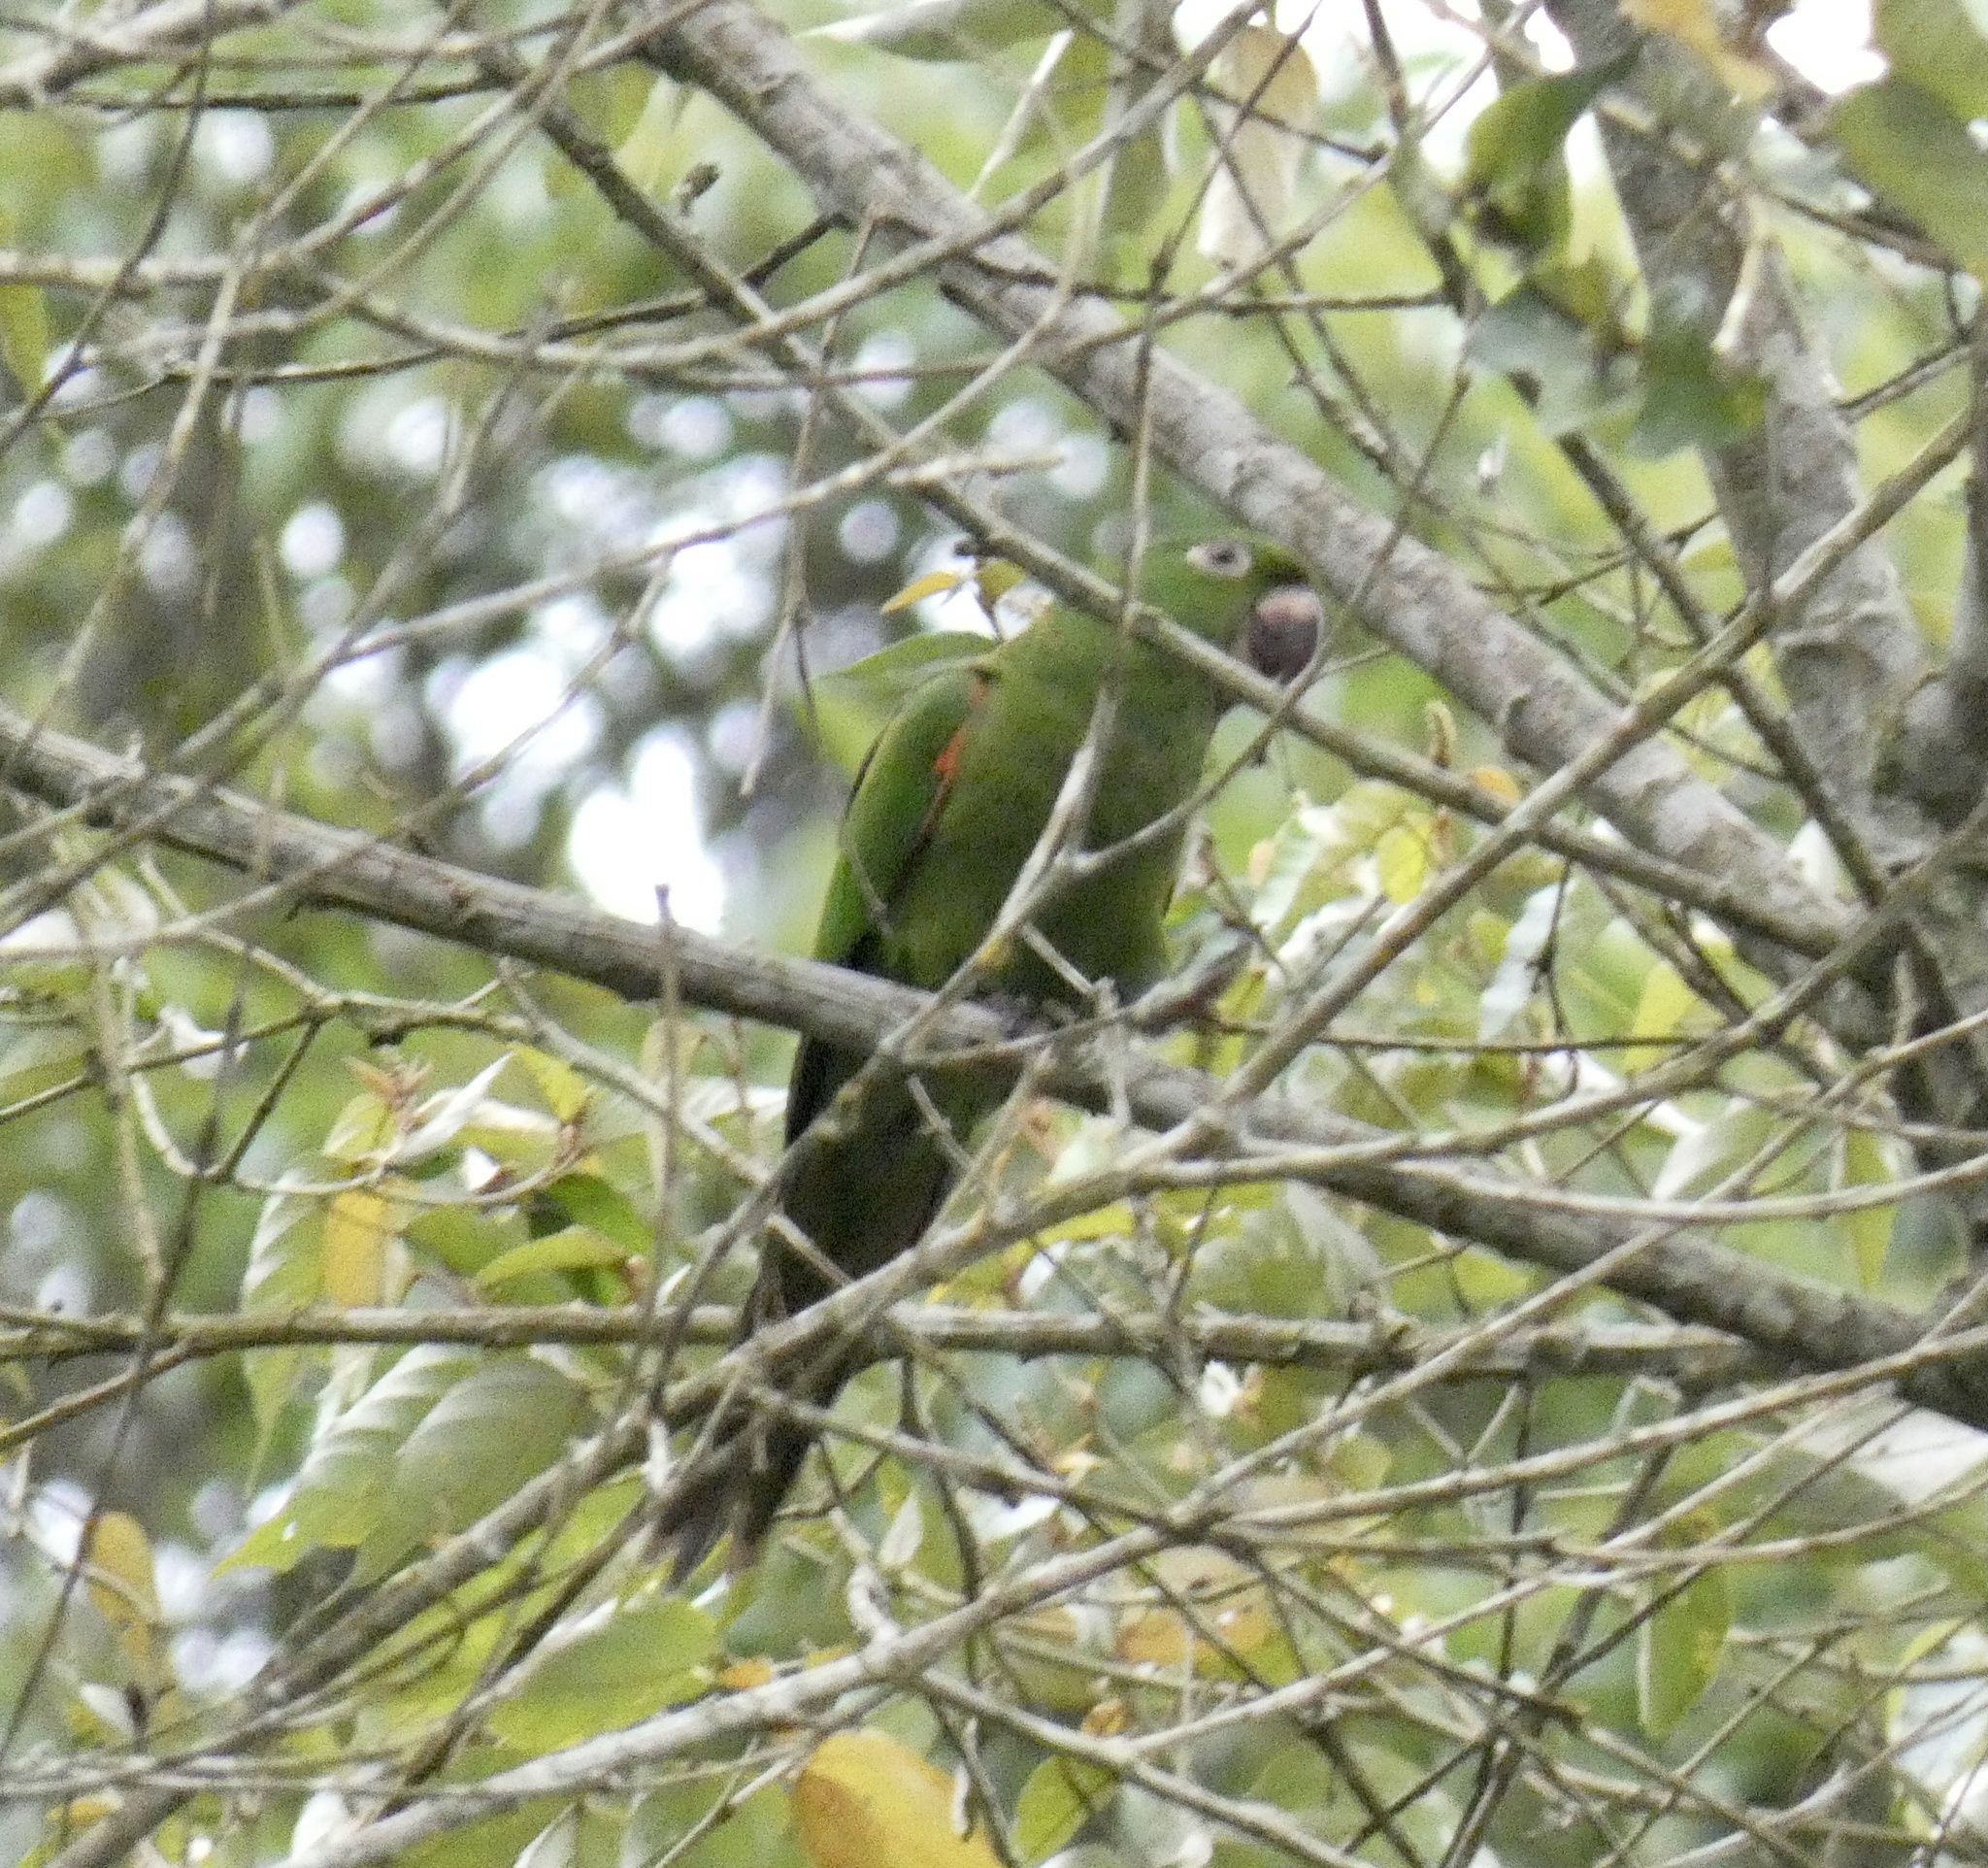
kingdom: Animalia
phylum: Chordata
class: Aves
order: Psittaciformes
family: Psittacidae
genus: Aratinga
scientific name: Aratinga leucophthalma
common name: White-eyed parakeet
